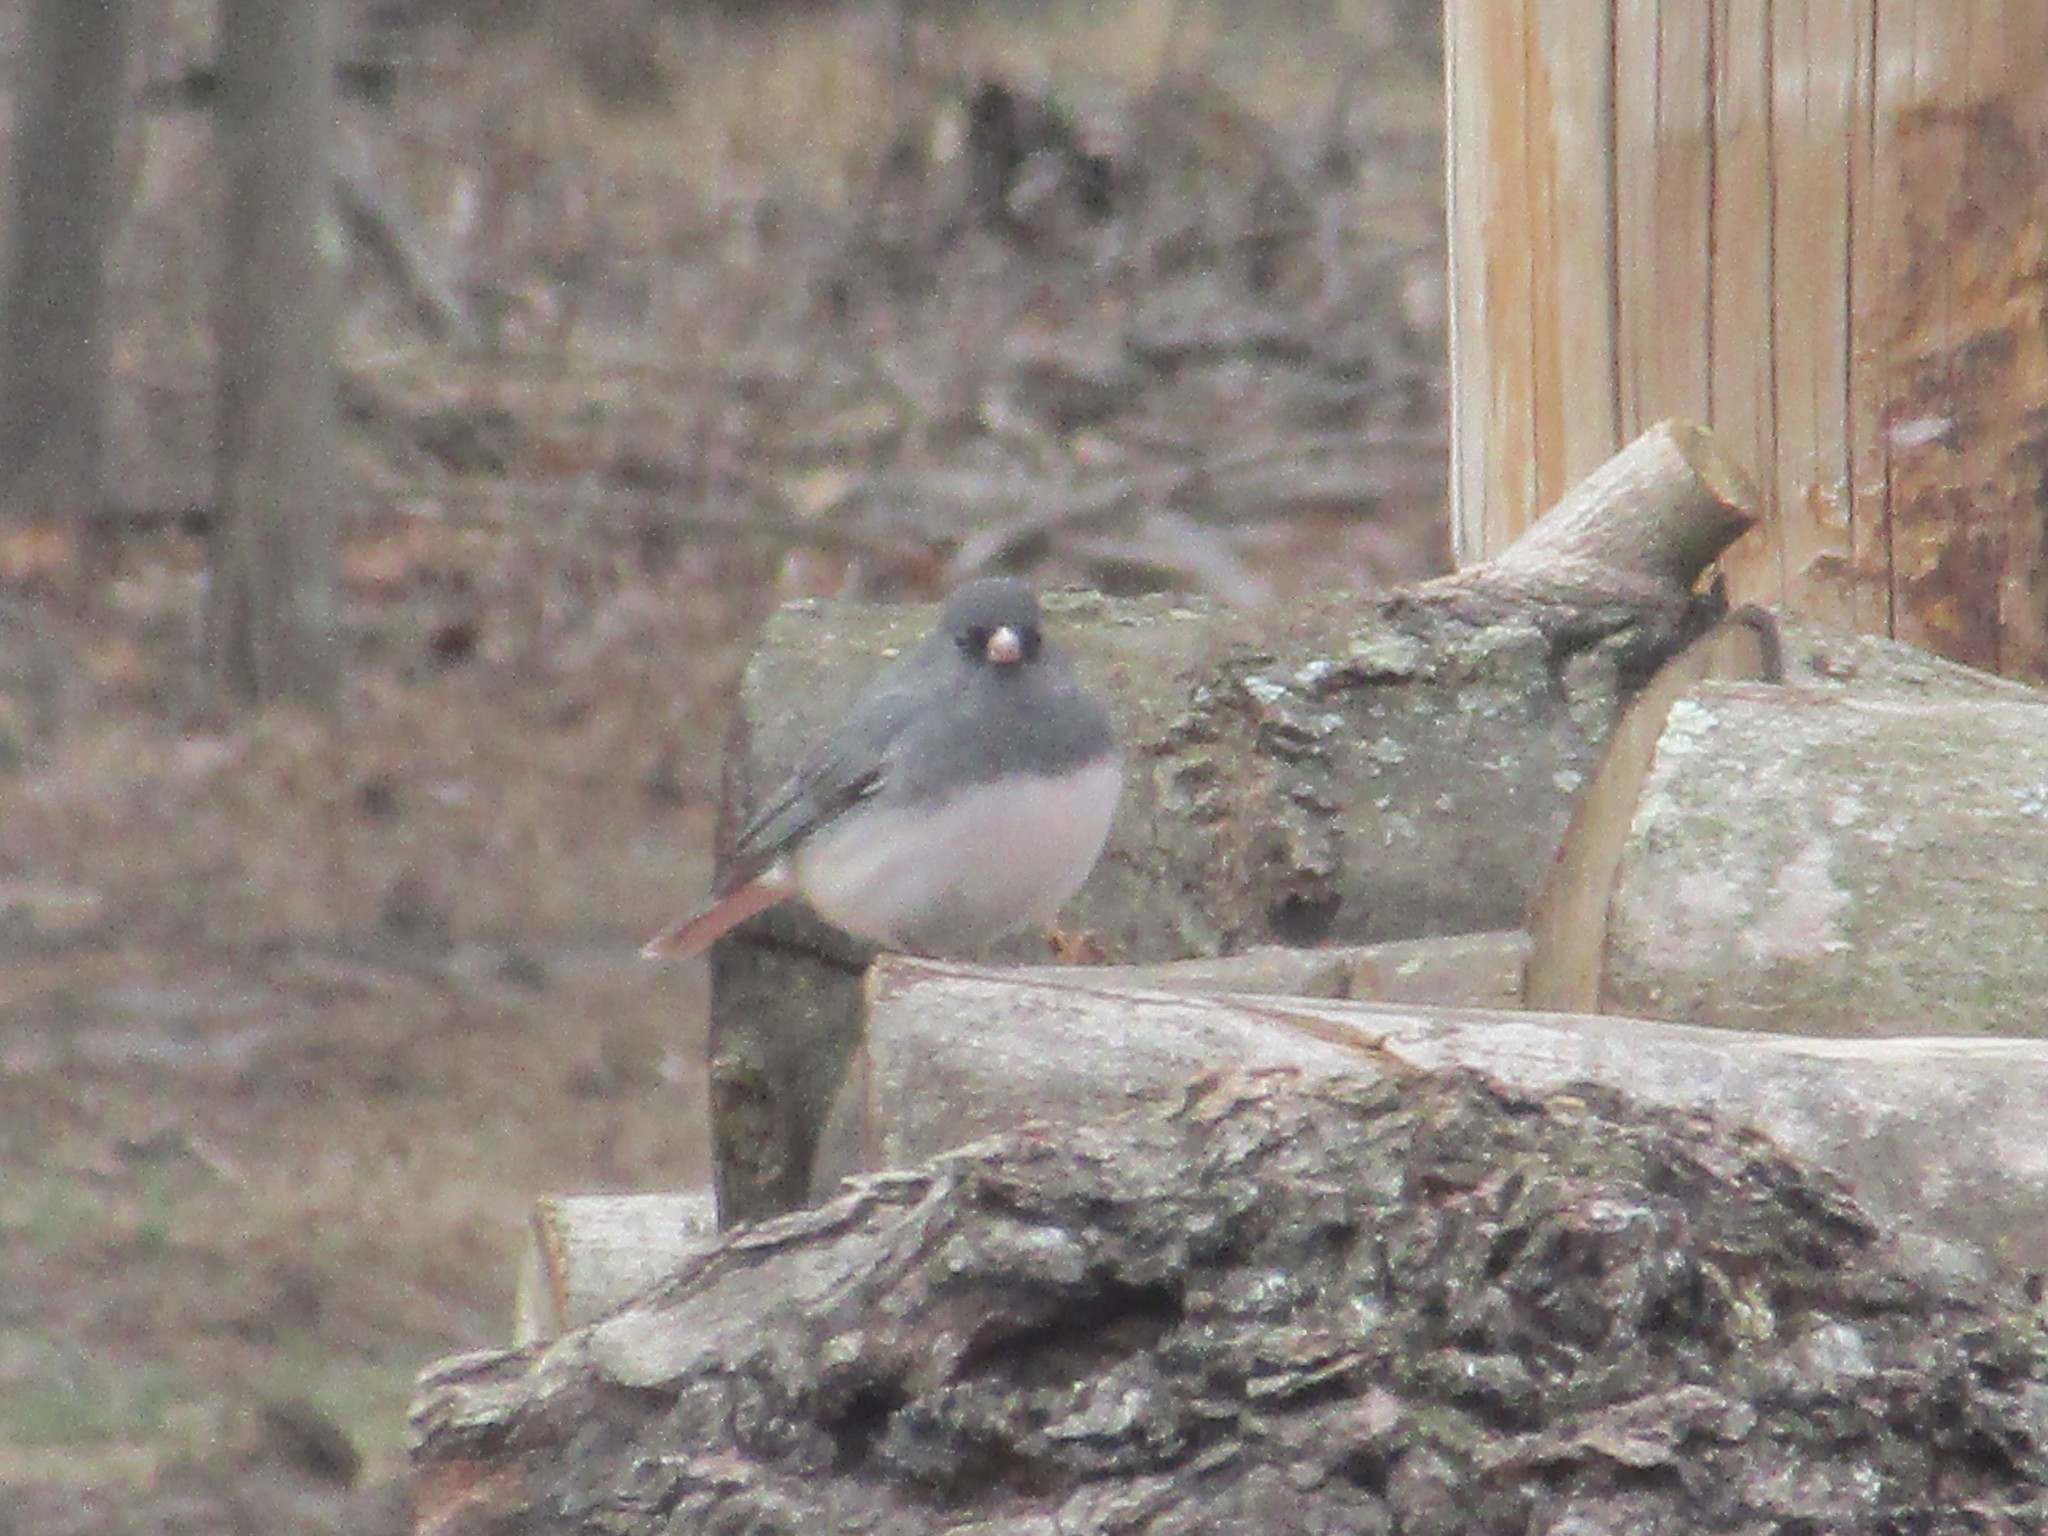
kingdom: Animalia
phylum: Chordata
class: Aves
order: Passeriformes
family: Passerellidae
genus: Junco
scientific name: Junco hyemalis
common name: Dark-eyed junco
